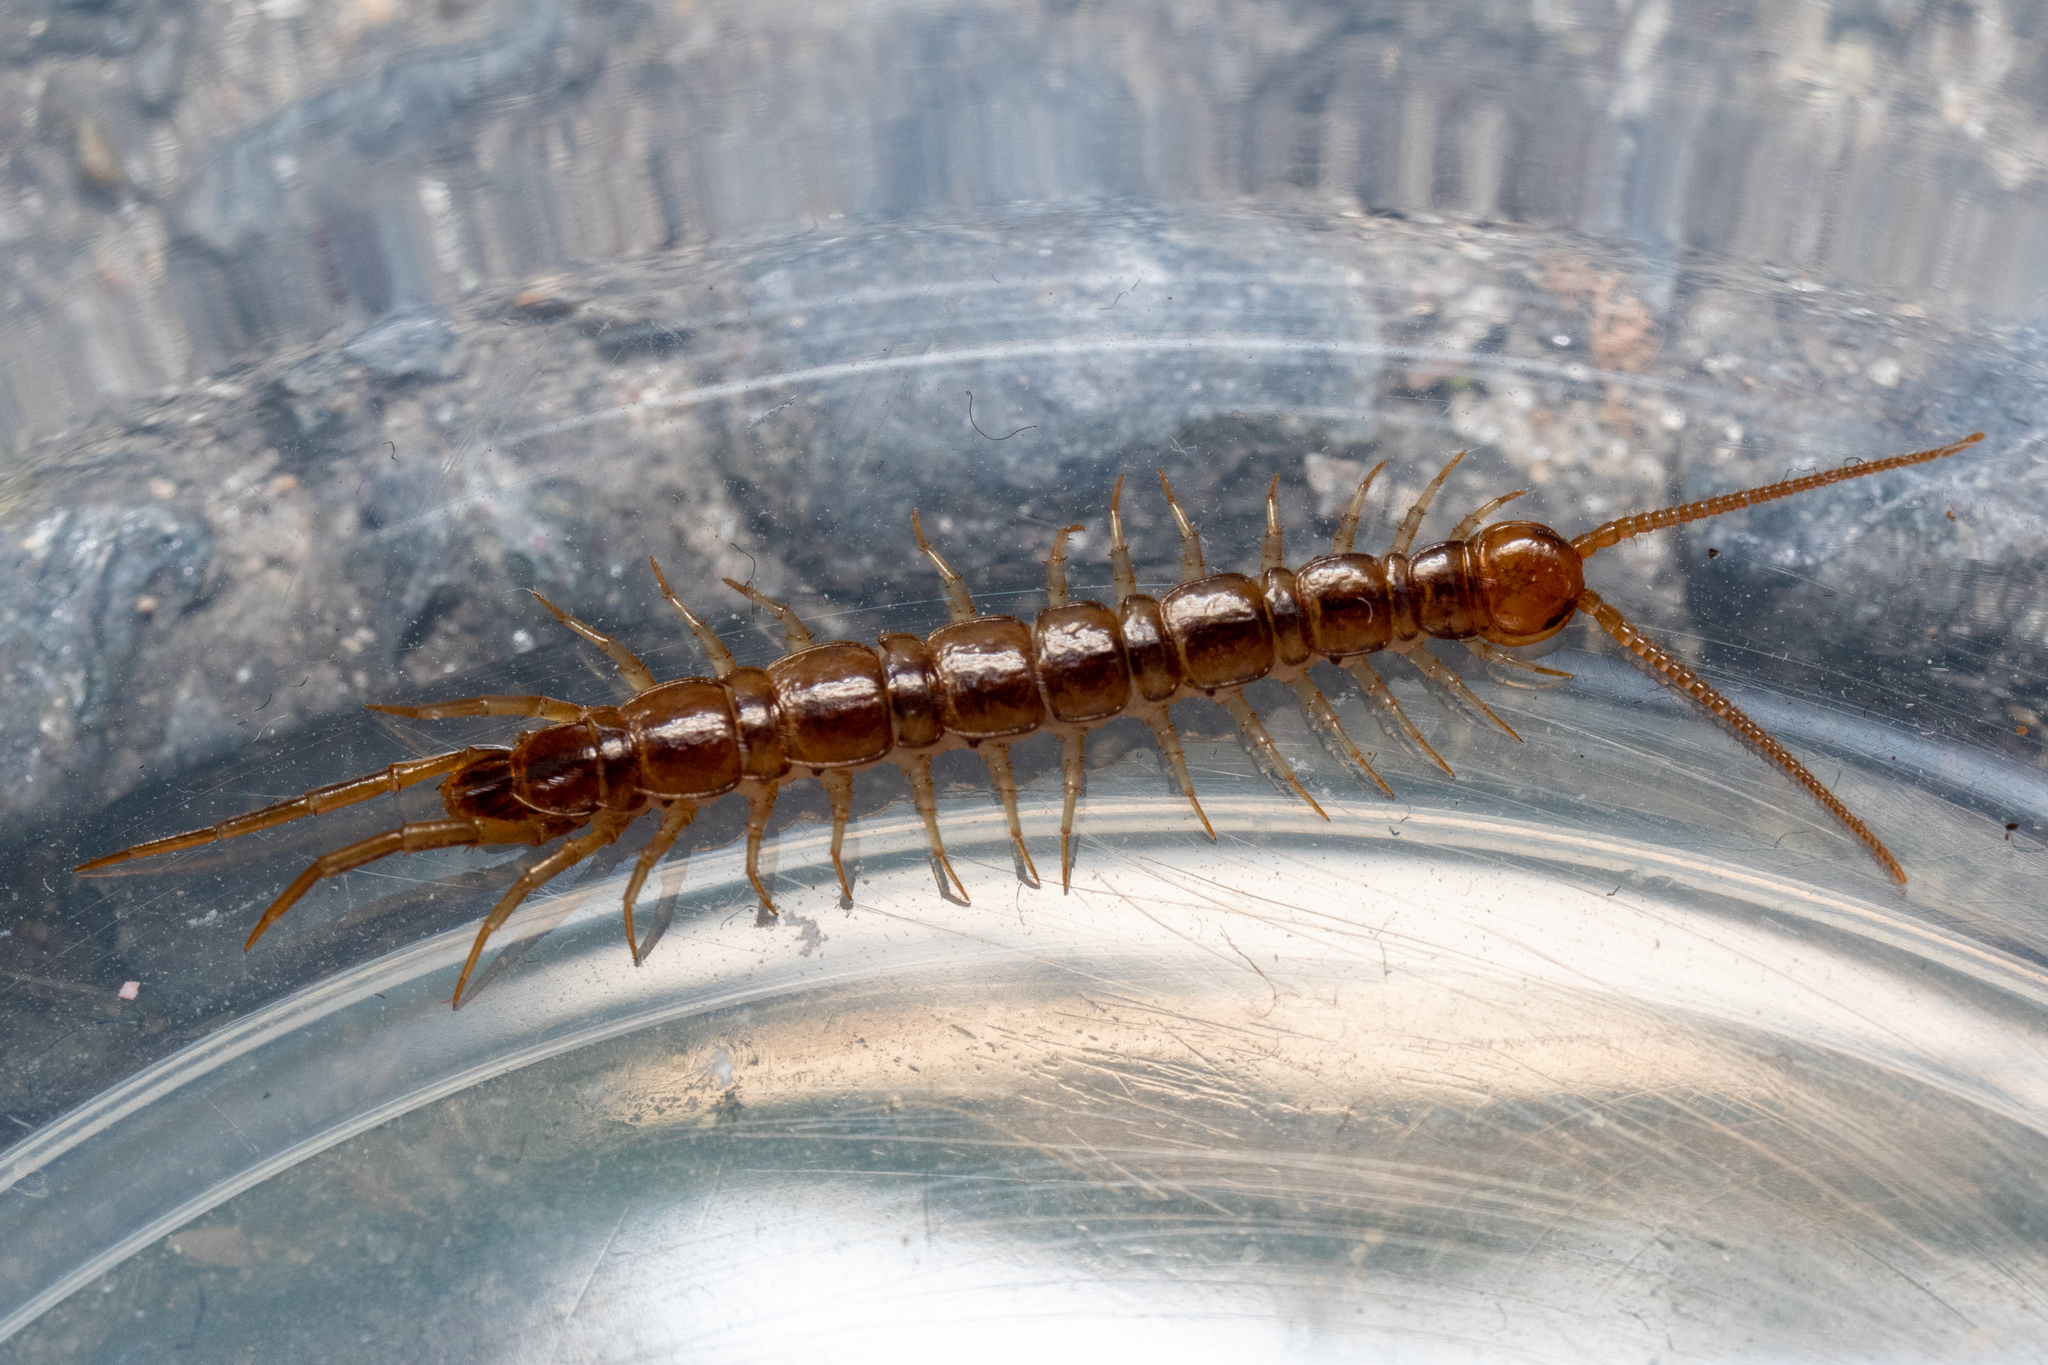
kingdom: Animalia
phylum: Arthropoda
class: Chilopoda
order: Lithobiomorpha
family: Lithobiidae
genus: Lithobius
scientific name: Lithobius melanops
